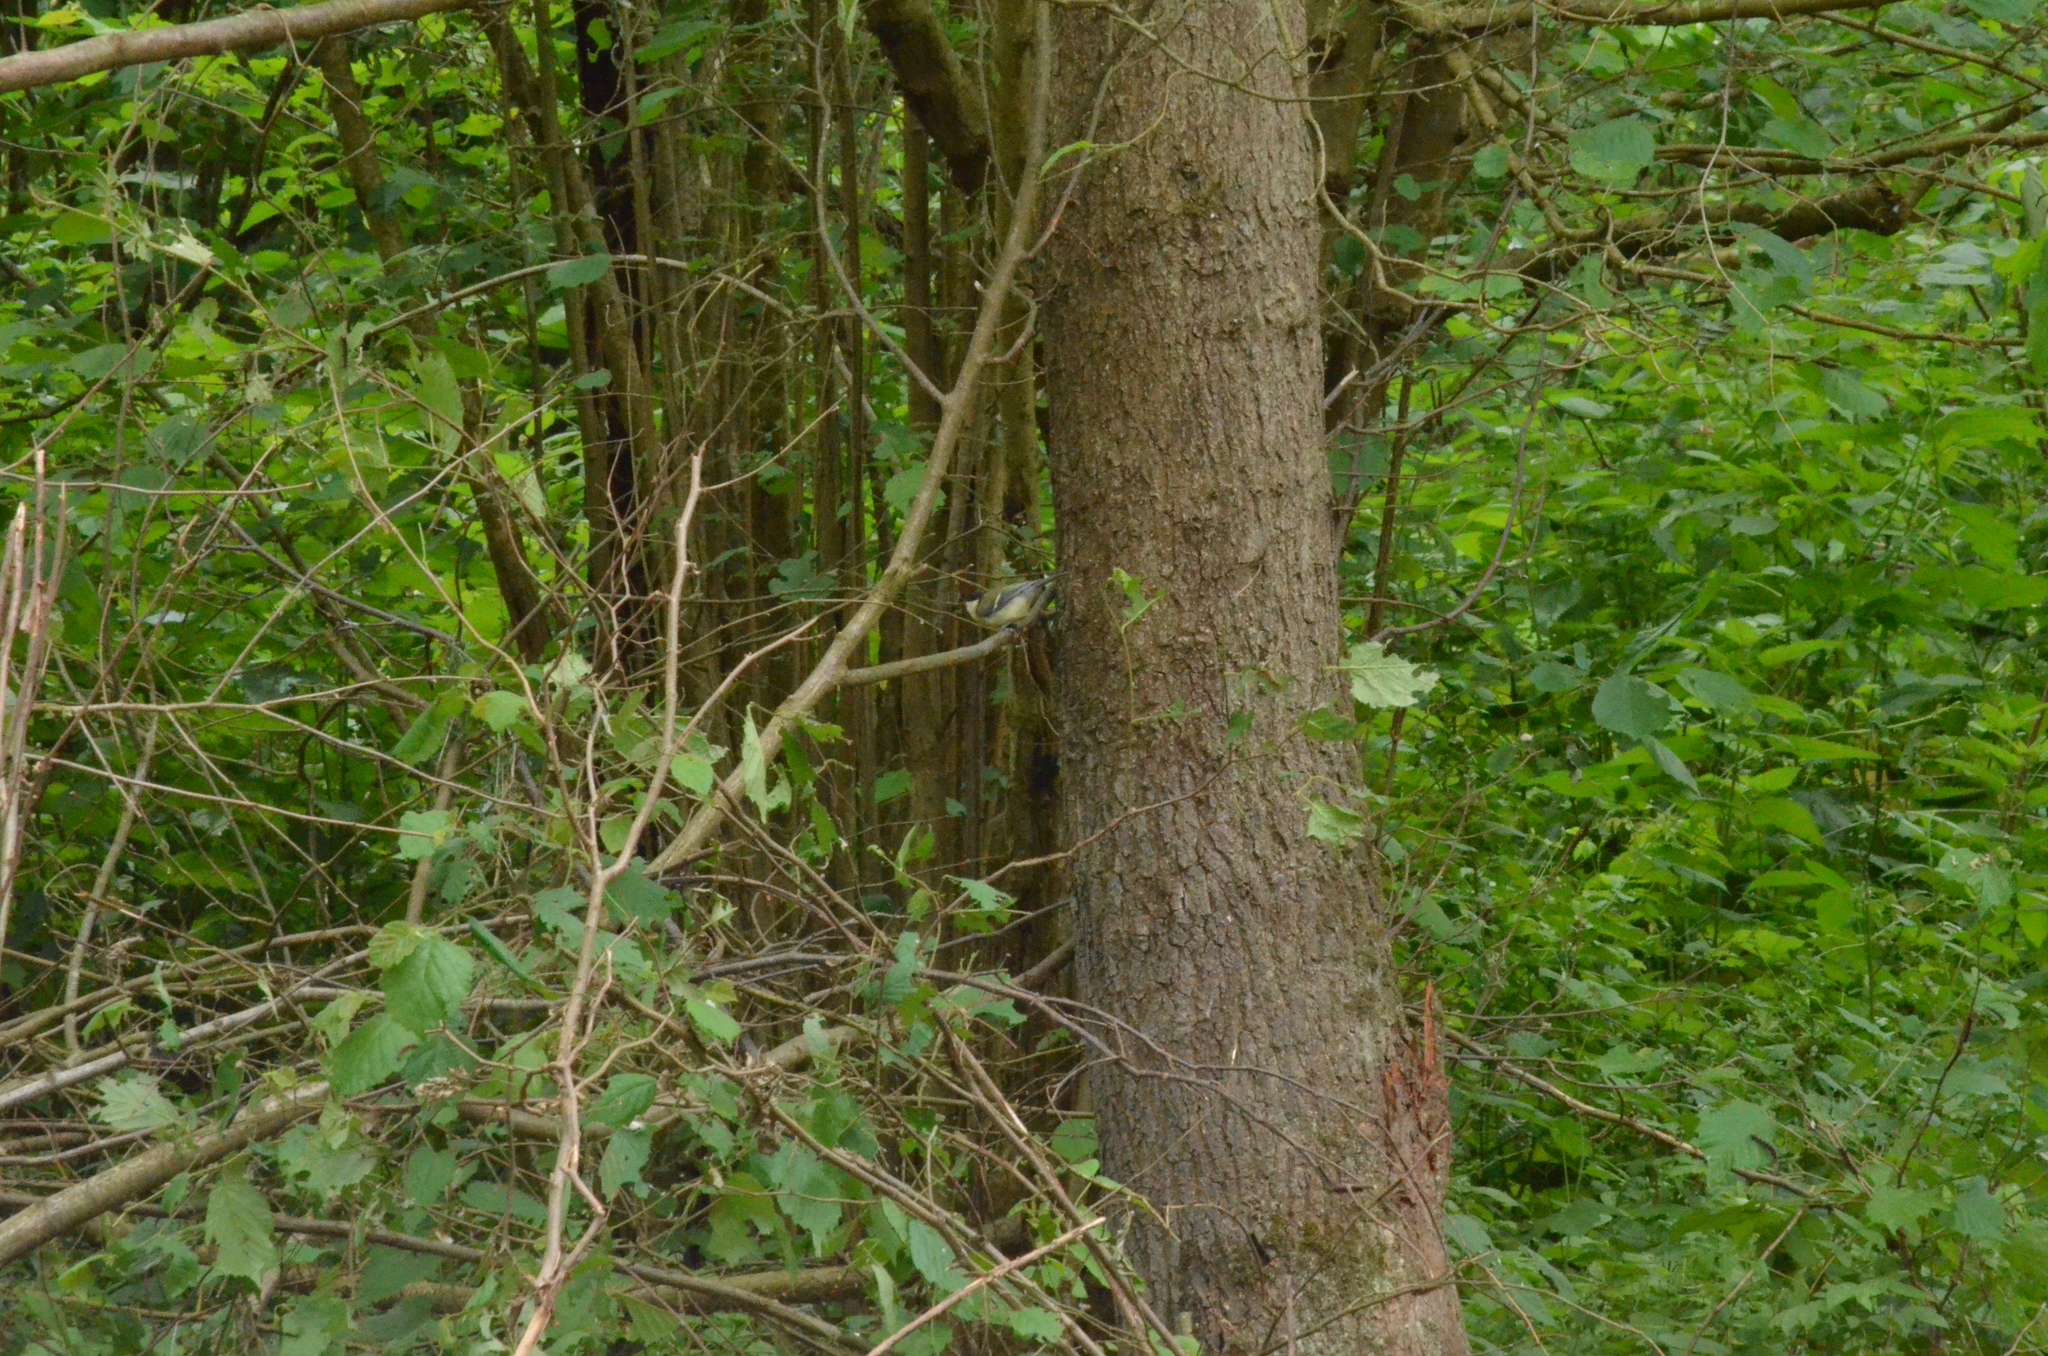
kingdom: Animalia
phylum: Chordata
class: Aves
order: Passeriformes
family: Paridae
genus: Parus
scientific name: Parus major
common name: Great tit
